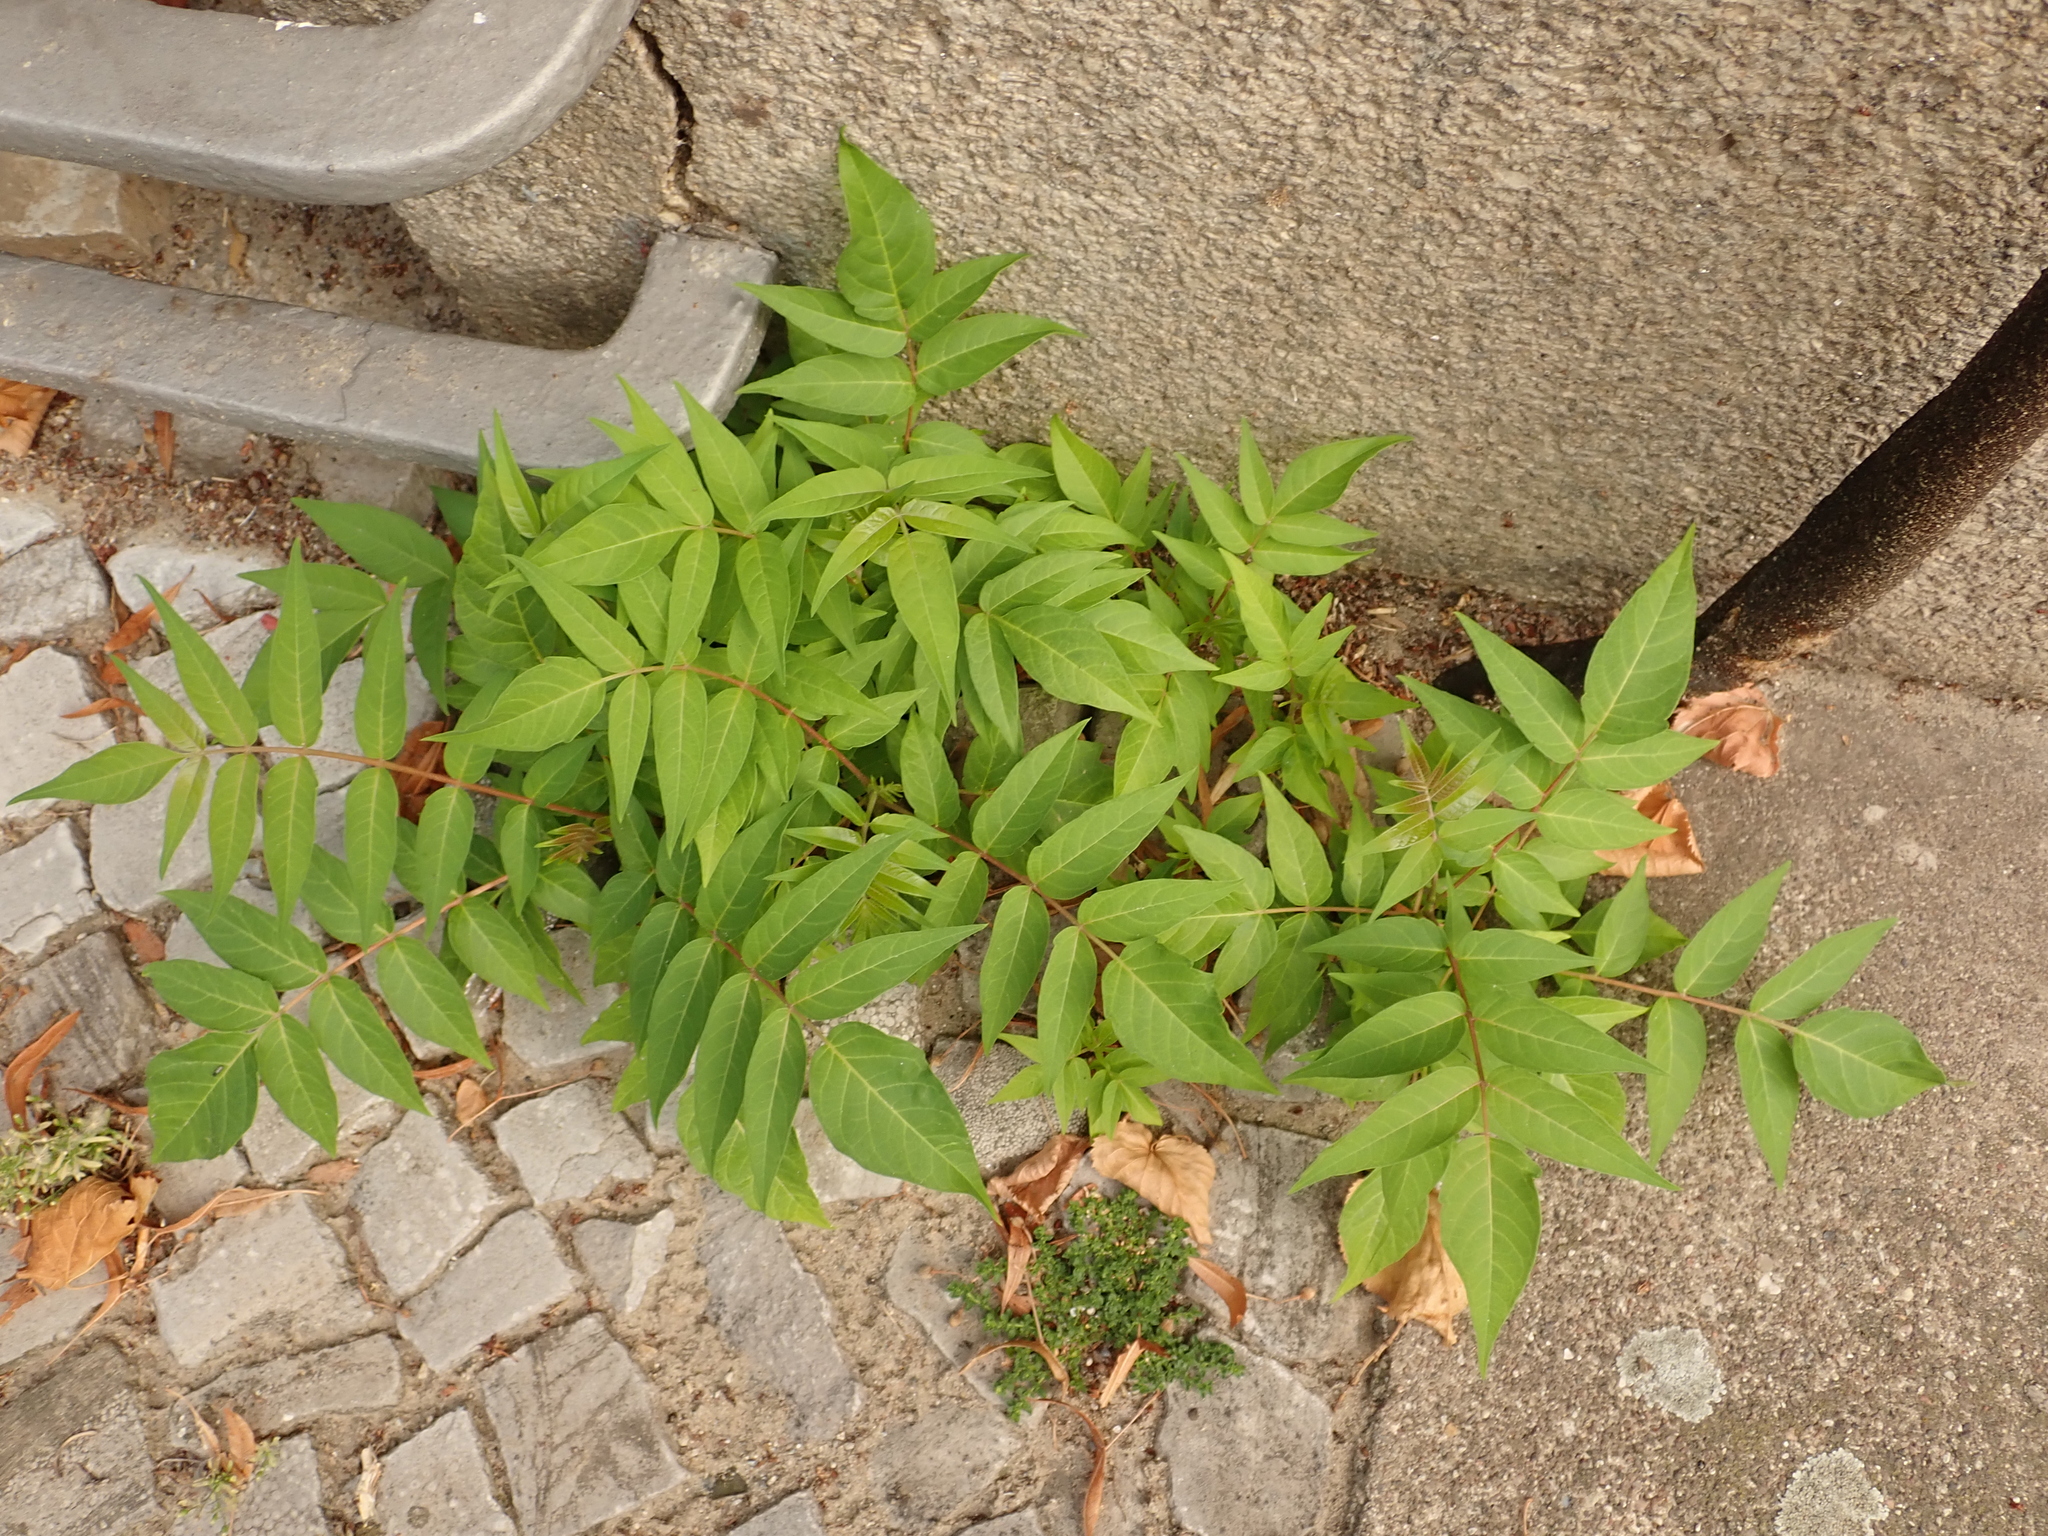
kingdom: Plantae
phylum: Tracheophyta
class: Magnoliopsida
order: Sapindales
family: Simaroubaceae
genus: Ailanthus
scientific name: Ailanthus altissima
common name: Tree-of-heaven
